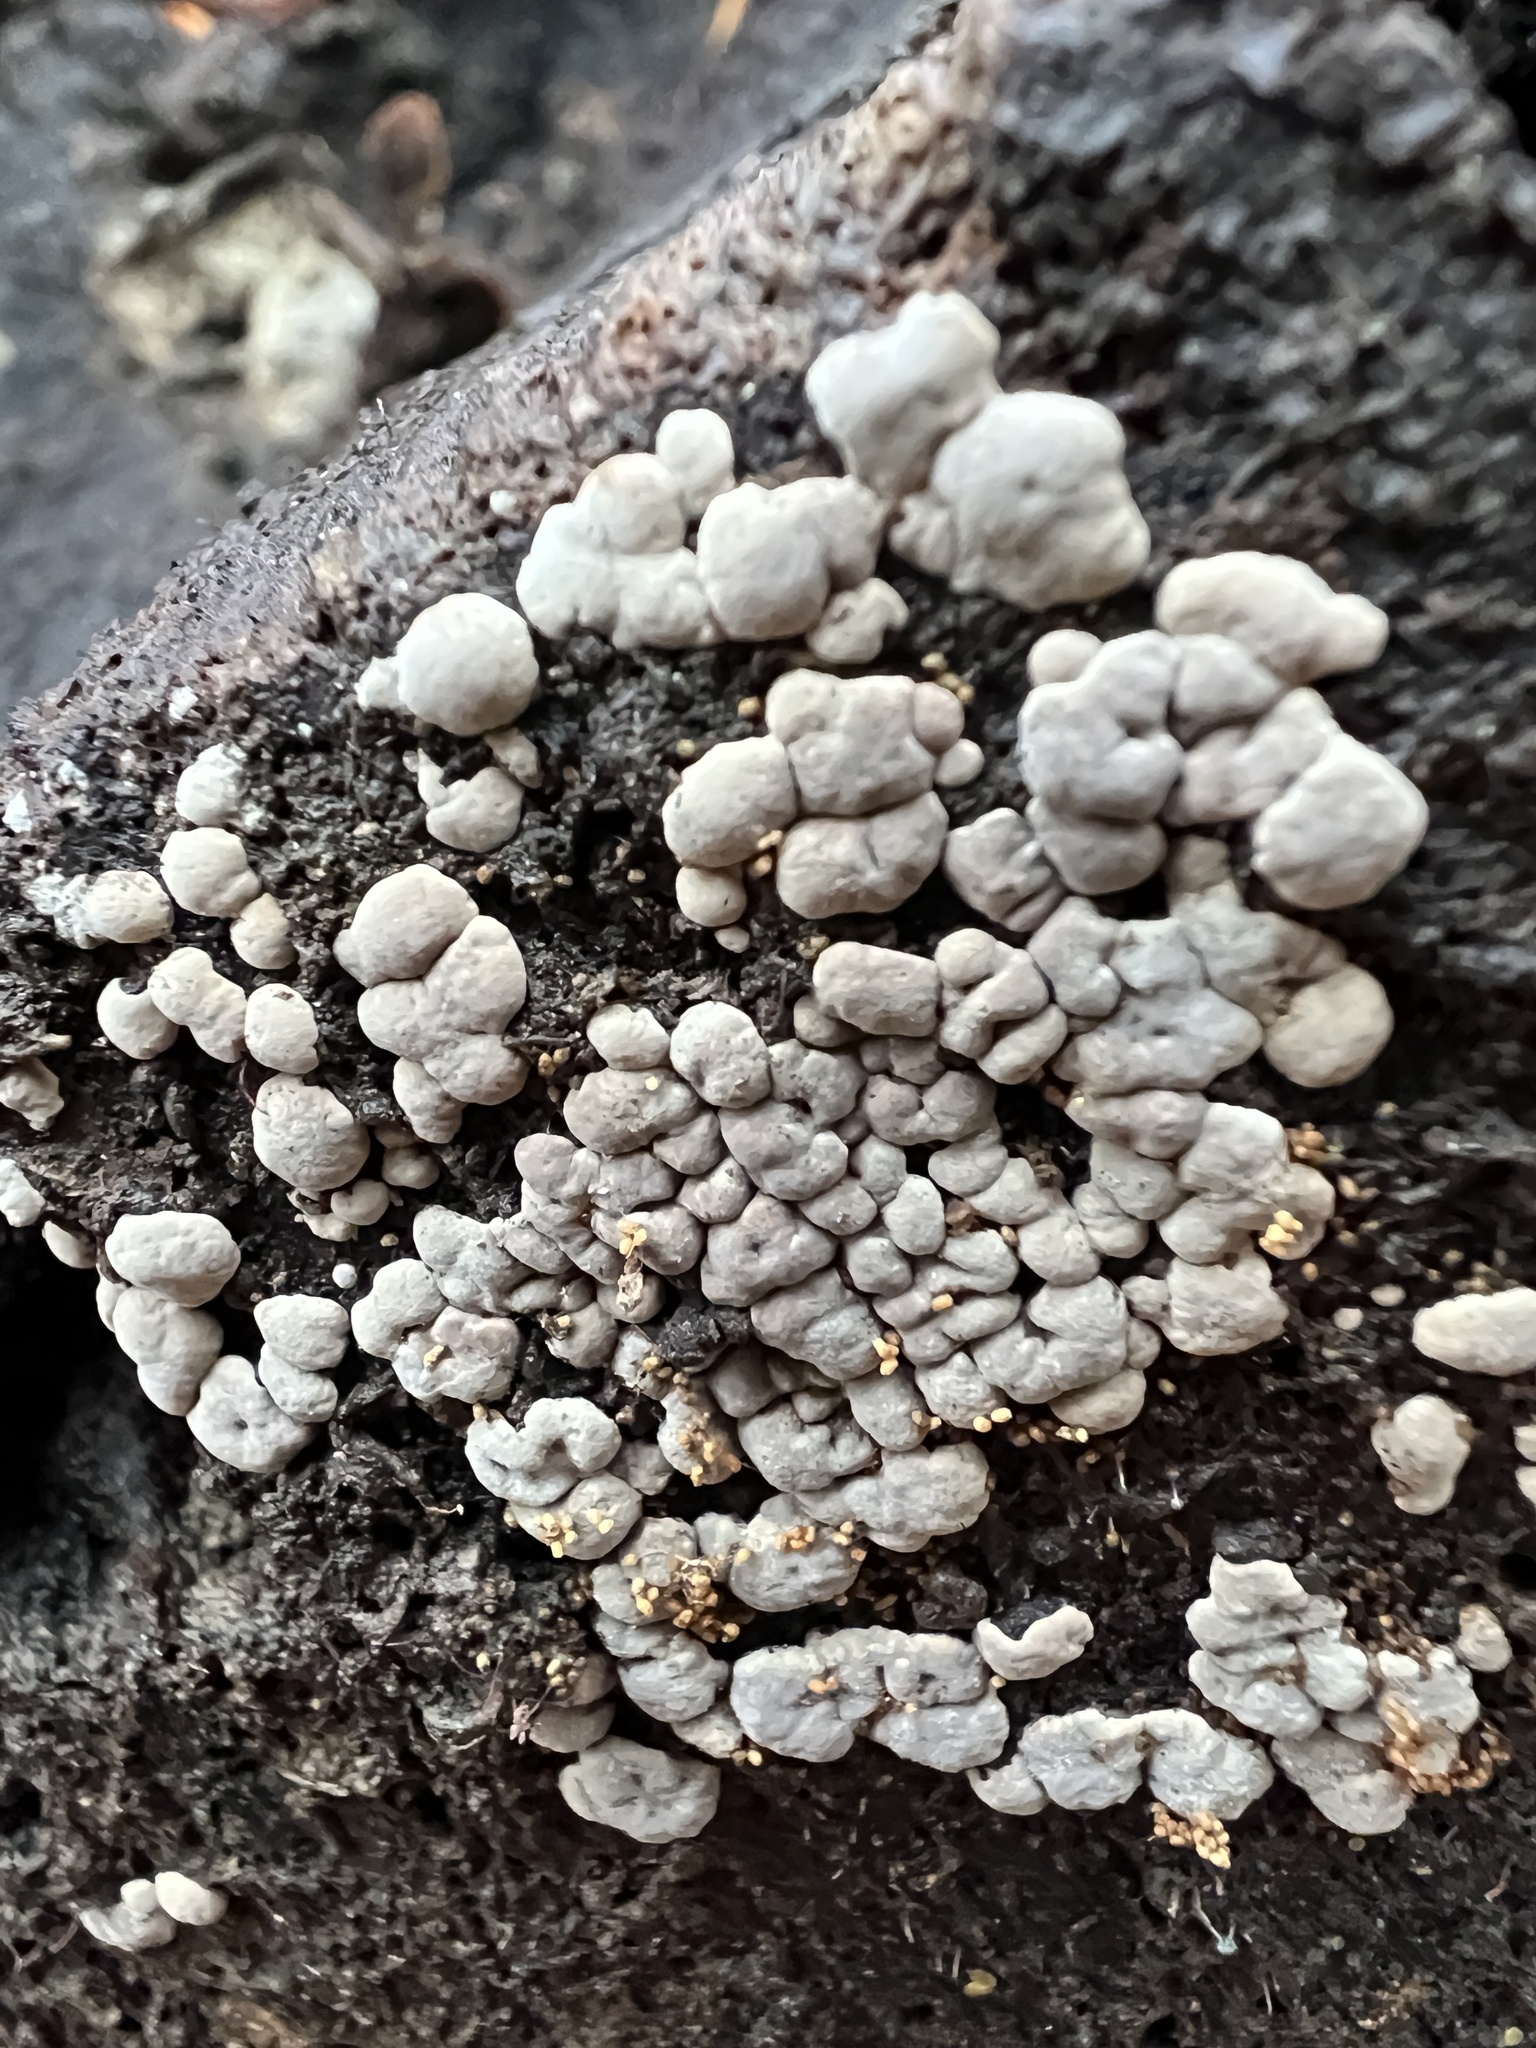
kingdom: Fungi
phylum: Basidiomycota
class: Agaricomycetes
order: Russulales
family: Stereaceae
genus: Xylobolus
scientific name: Xylobolus frustulatus
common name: Ceramic parchment
